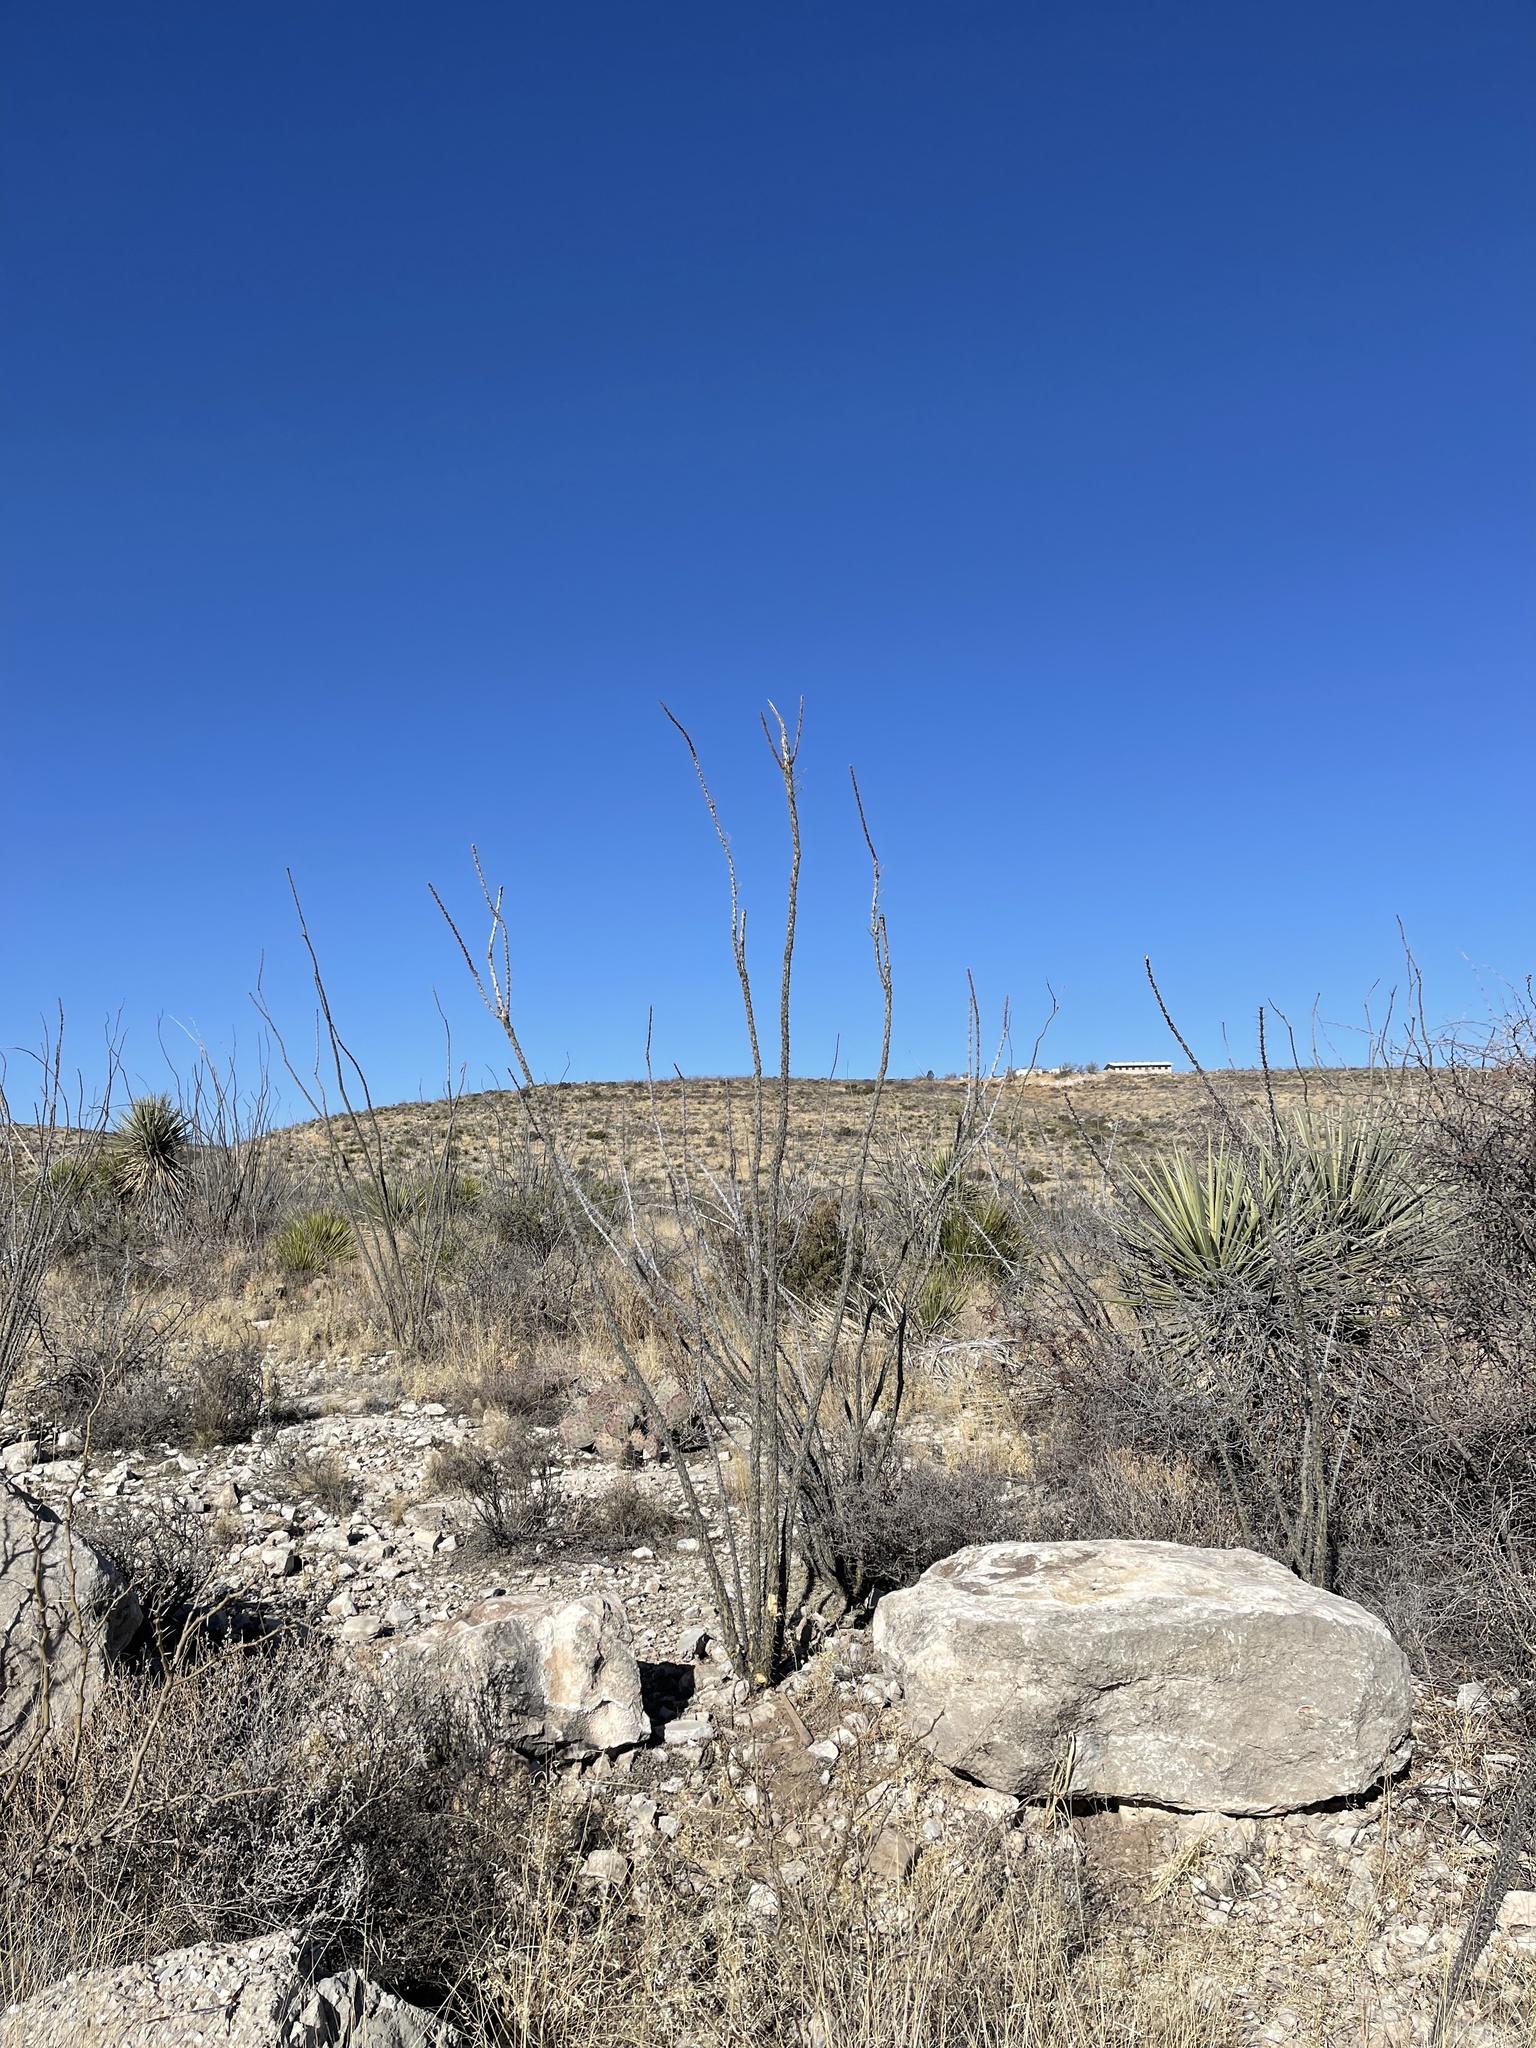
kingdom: Plantae
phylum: Tracheophyta
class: Magnoliopsida
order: Ericales
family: Fouquieriaceae
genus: Fouquieria
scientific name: Fouquieria splendens
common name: Vine-cactus
